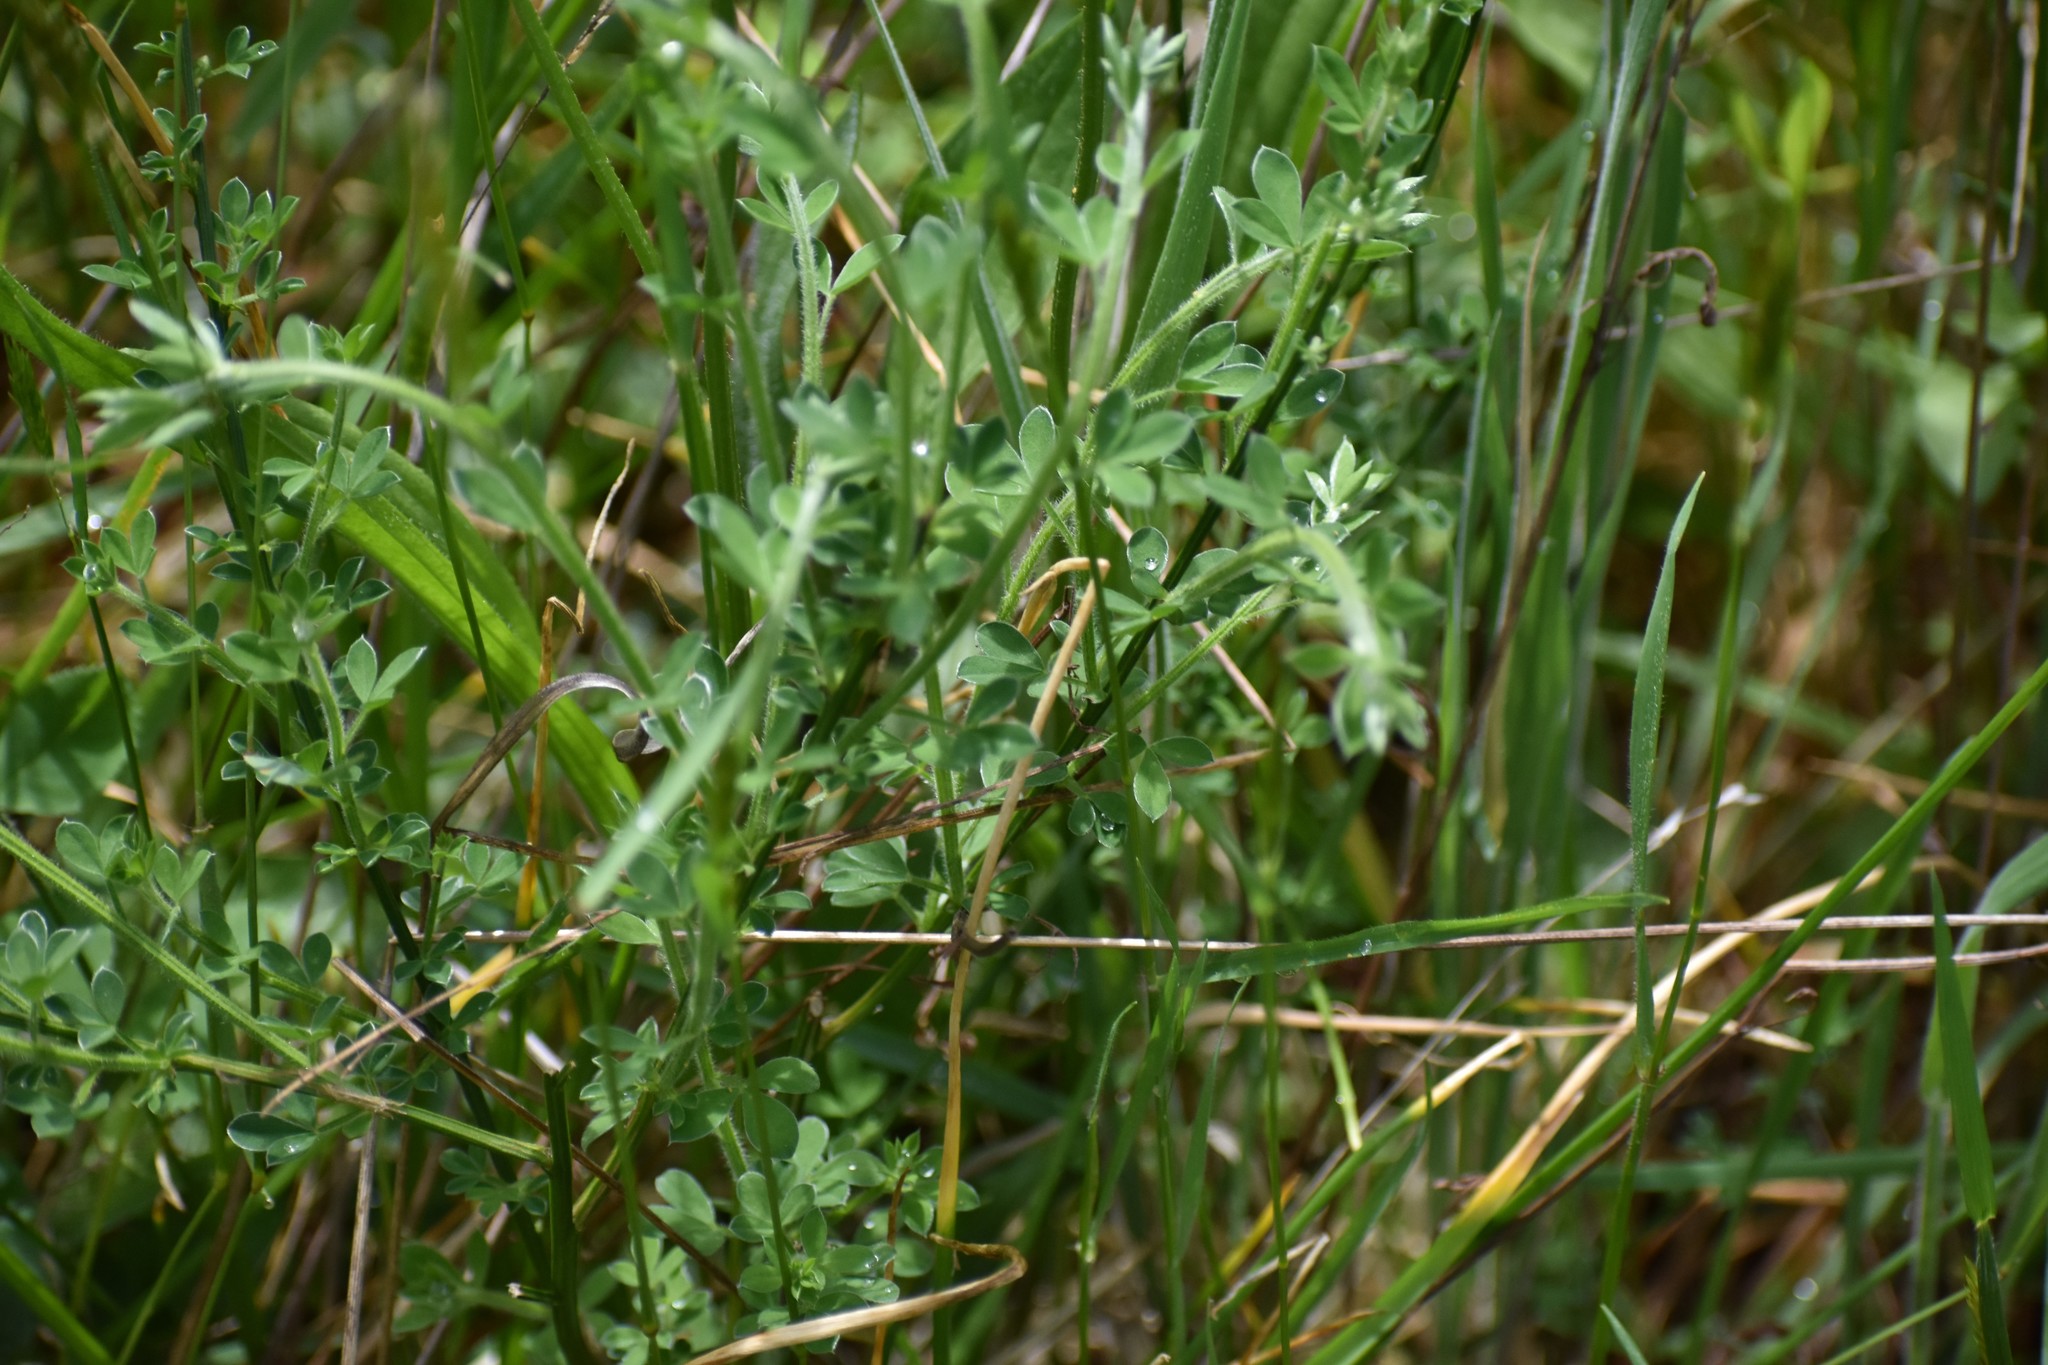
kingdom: Plantae
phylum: Tracheophyta
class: Magnoliopsida
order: Fabales
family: Fabaceae
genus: Cytisus
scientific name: Cytisus scoparius
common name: Scotch broom
